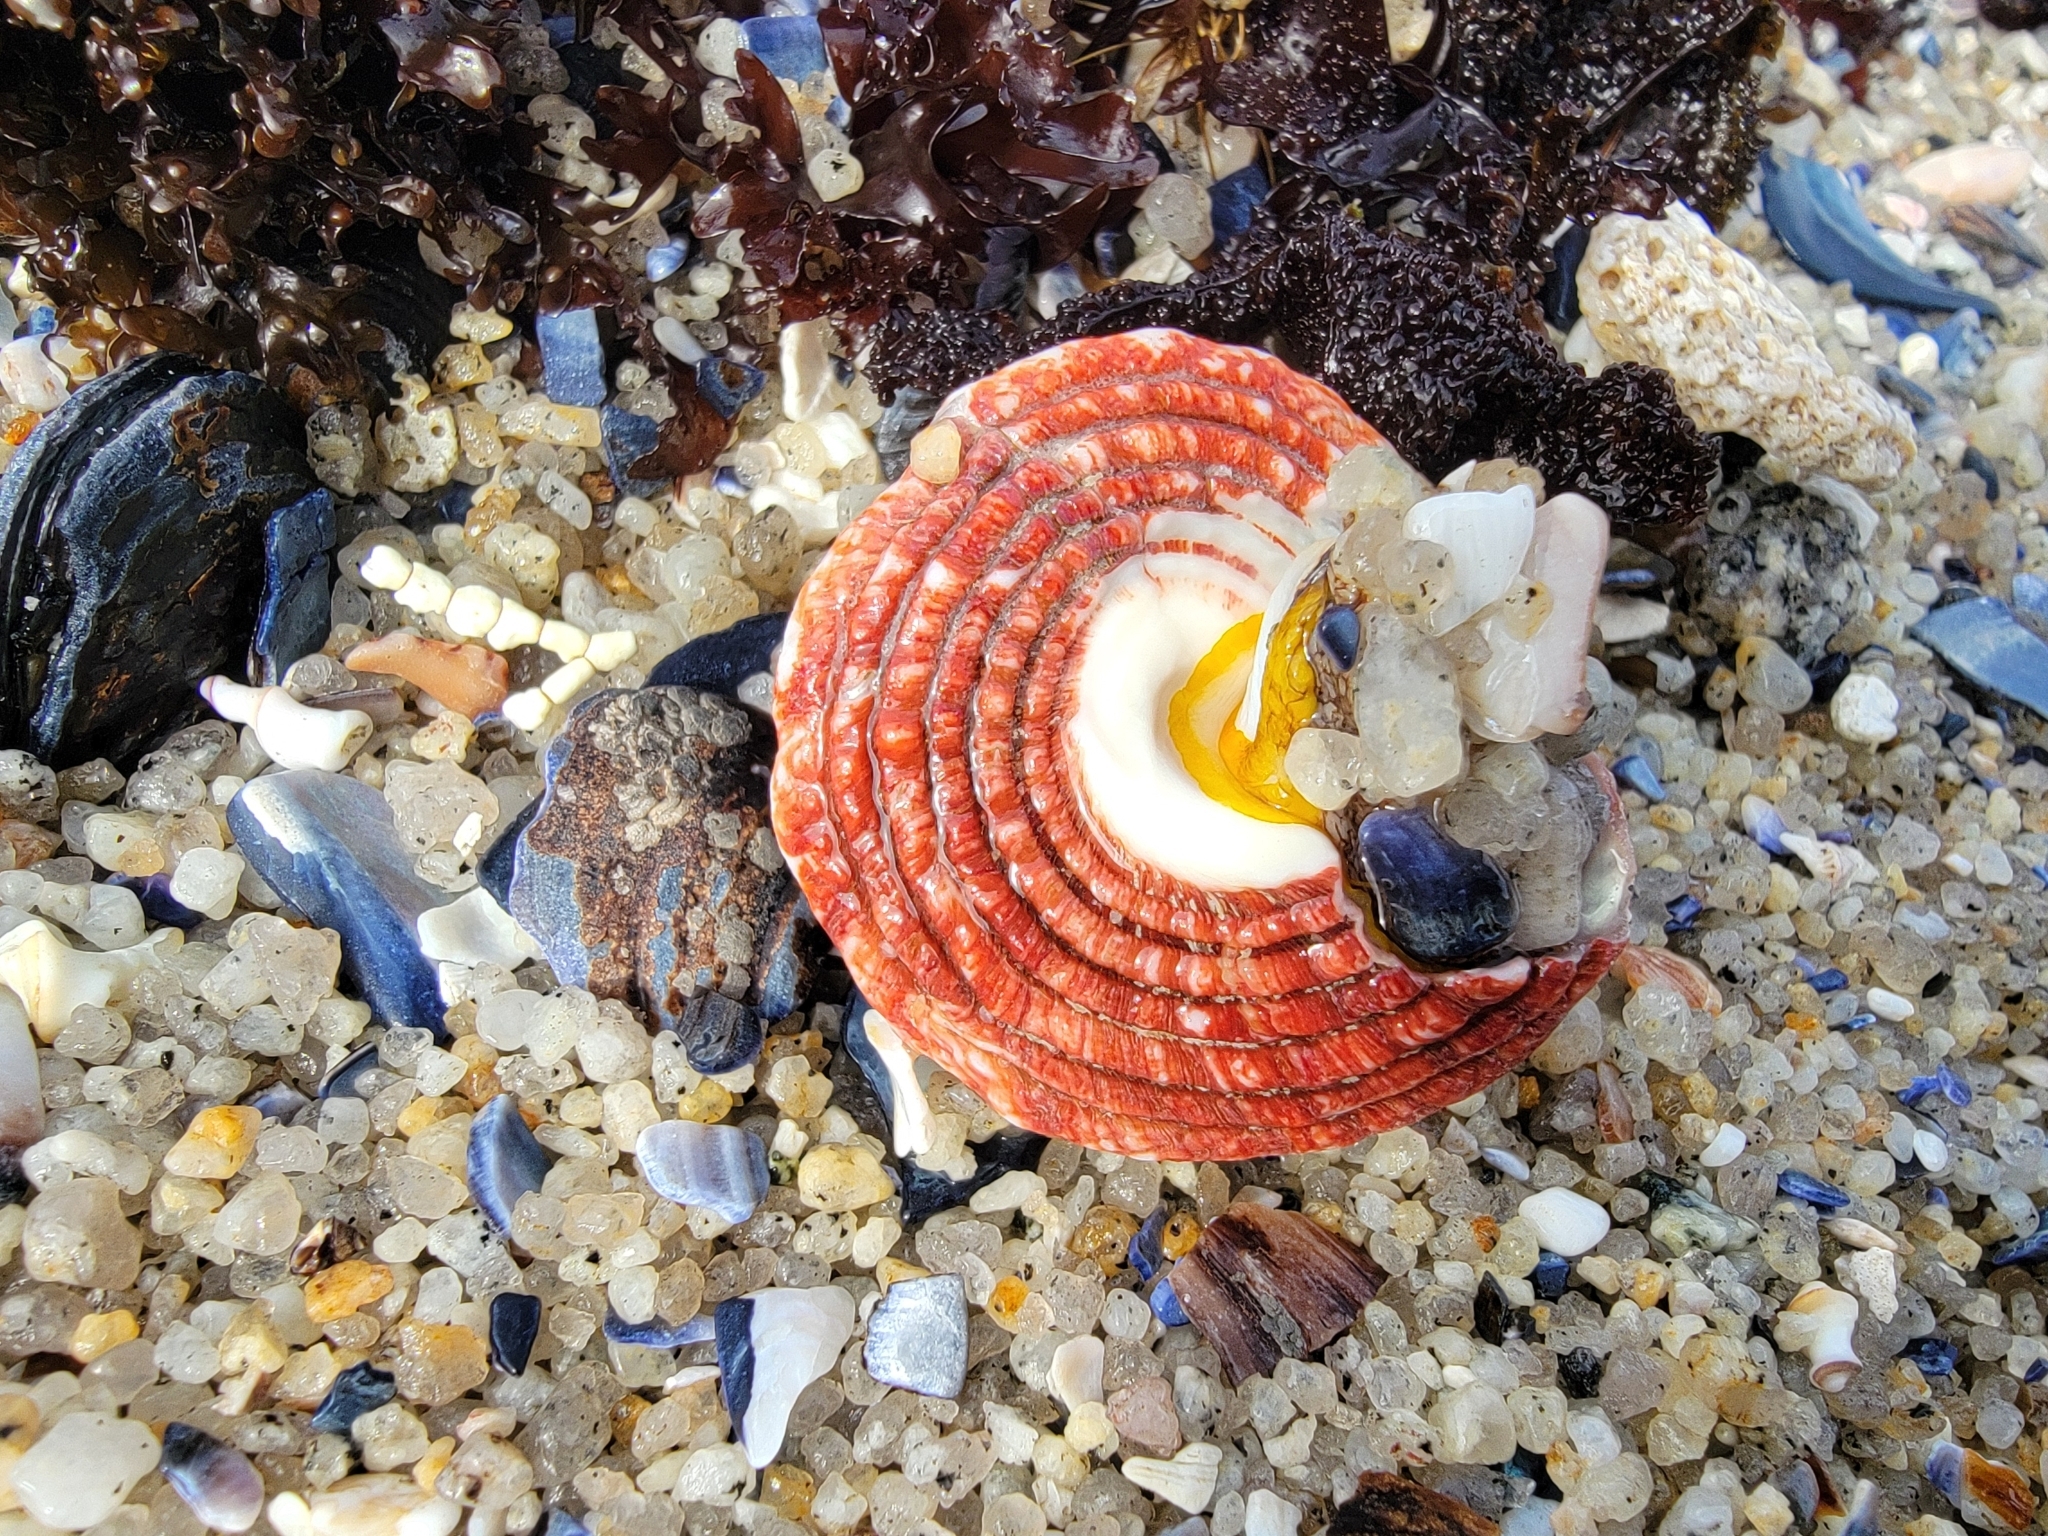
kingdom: Animalia
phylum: Mollusca
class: Gastropoda
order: Trochida
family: Turbinidae
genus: Pomaulax
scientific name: Pomaulax gibberosus
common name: Red turban
